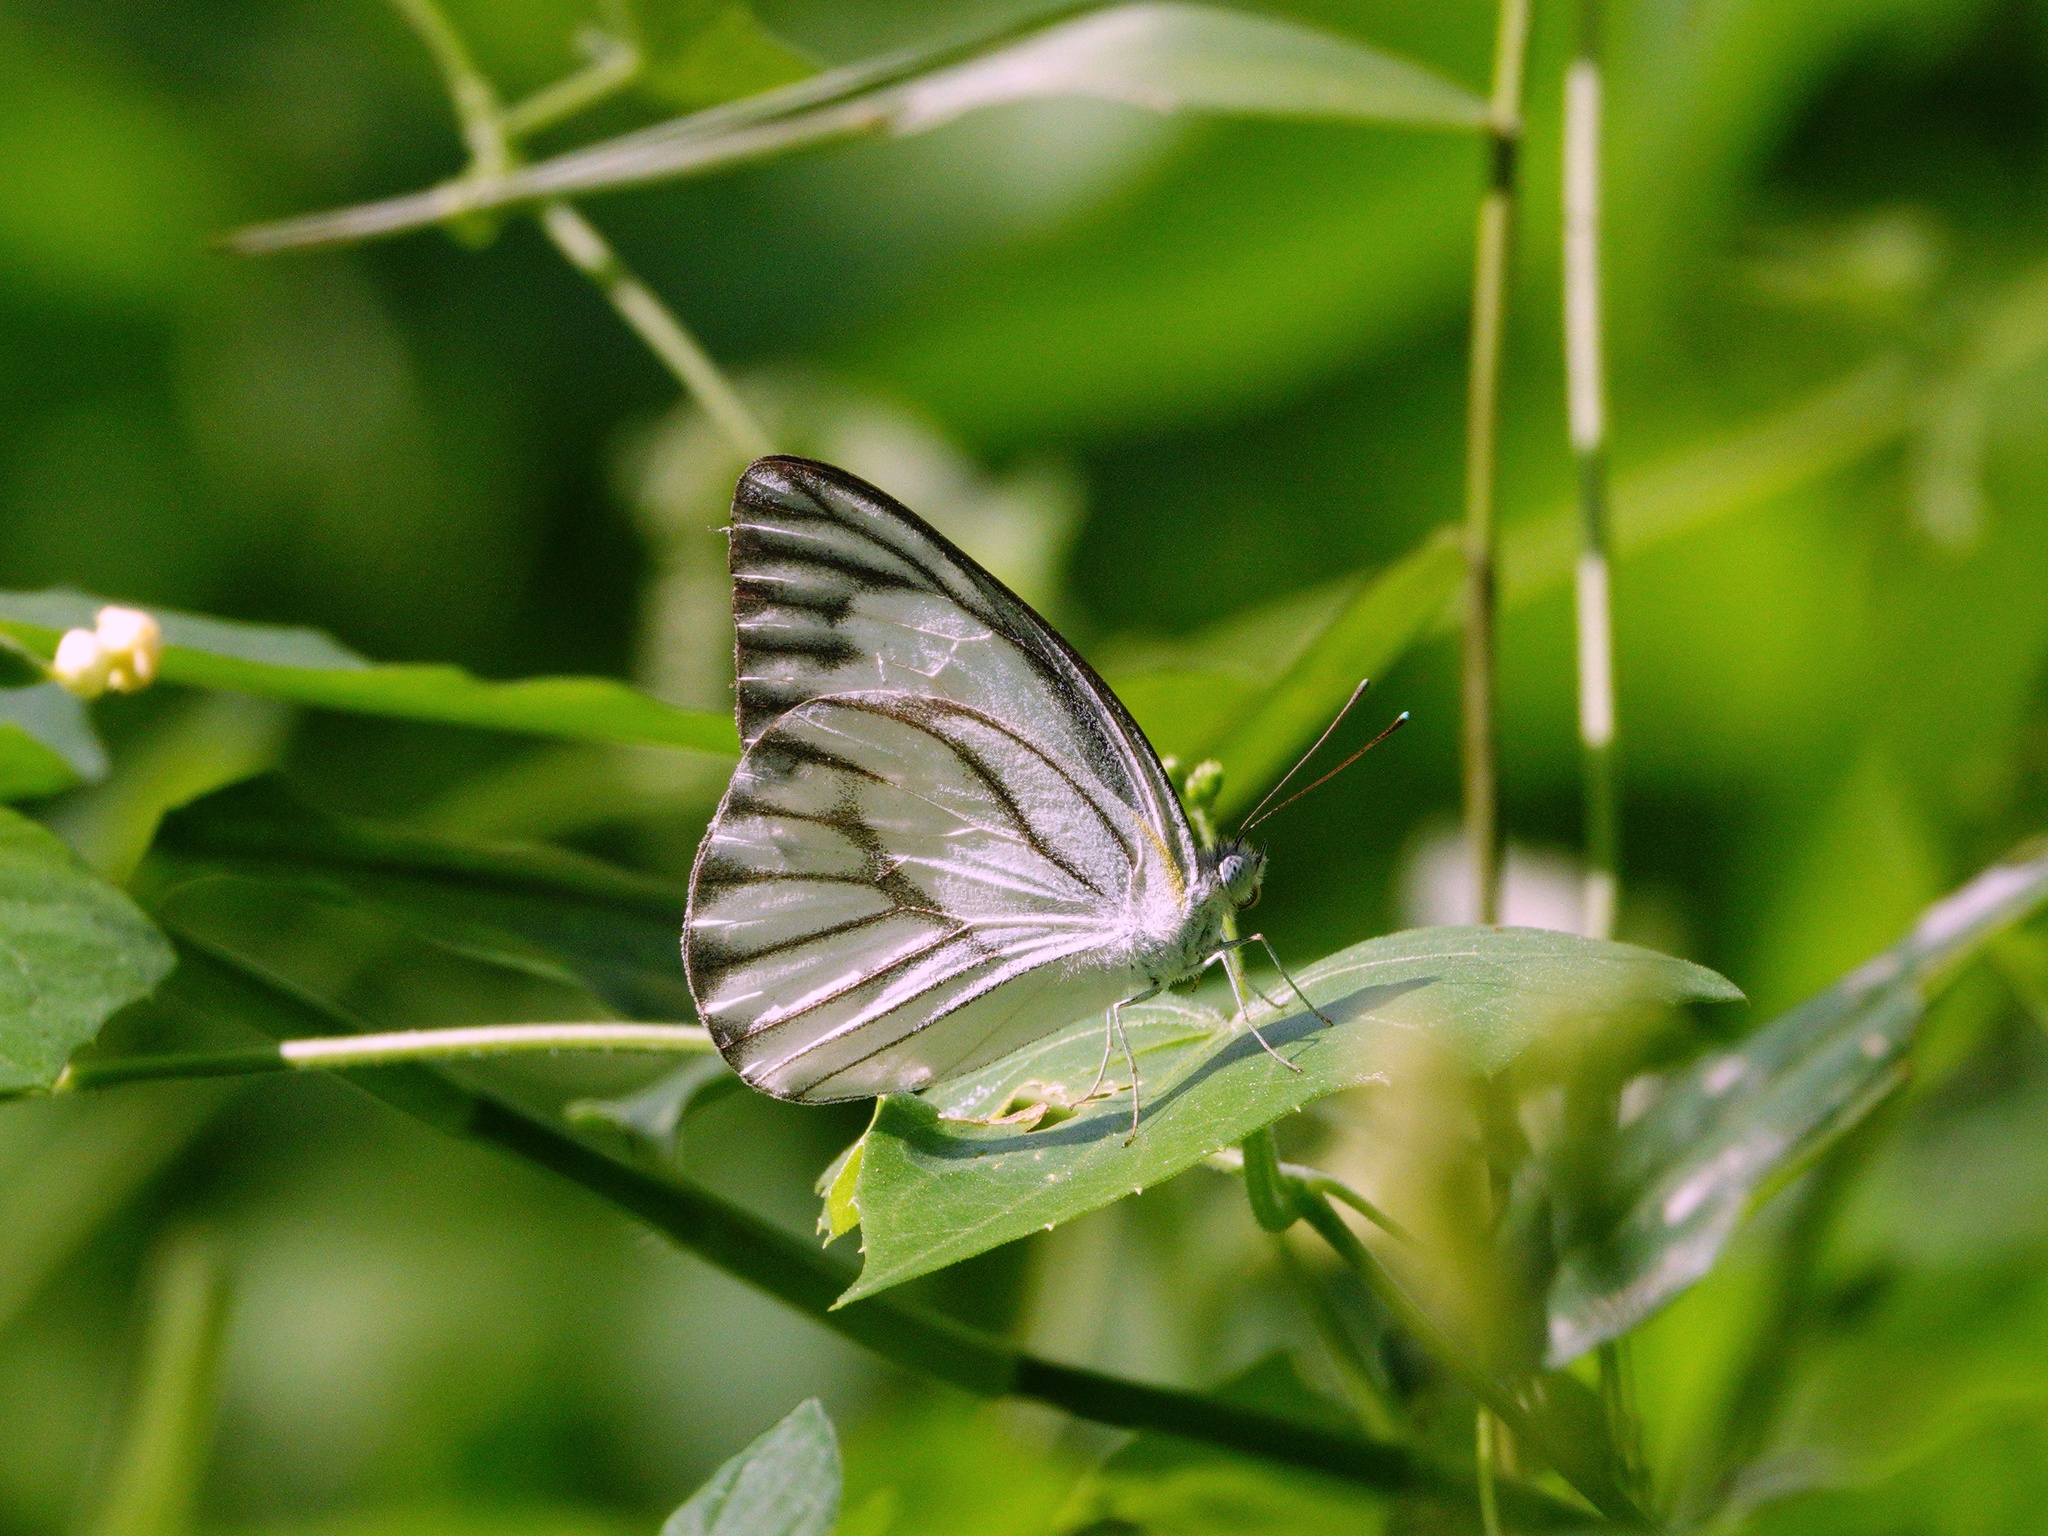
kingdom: Animalia
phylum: Arthropoda
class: Insecta
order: Lepidoptera
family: Pieridae
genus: Appias
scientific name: Appias libythea
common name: Striped albatross
